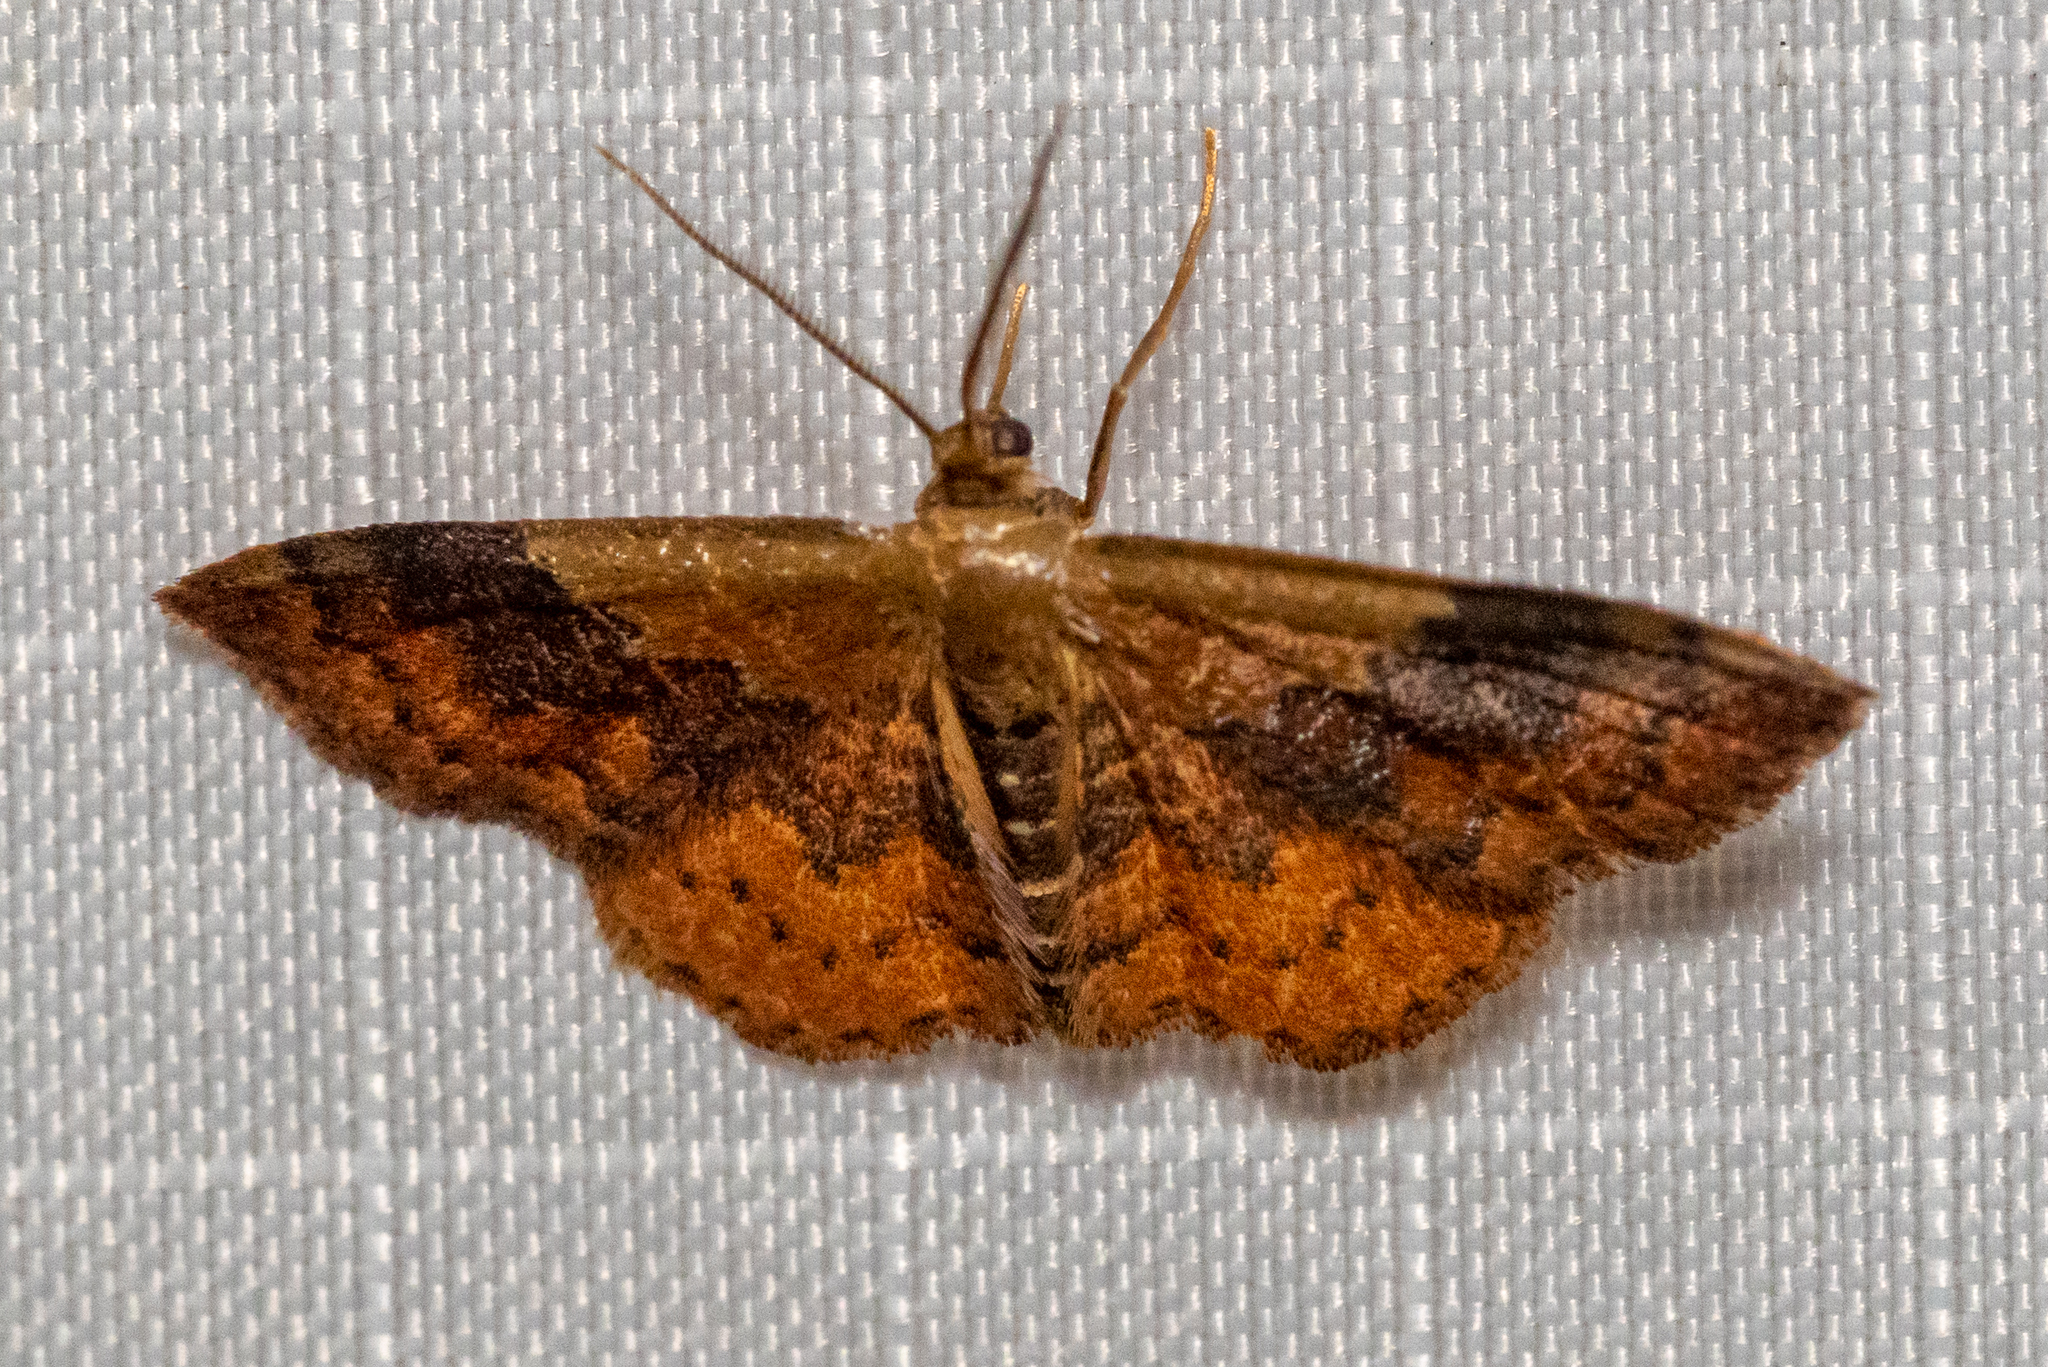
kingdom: Animalia
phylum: Arthropoda
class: Insecta
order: Lepidoptera
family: Geometridae
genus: Leptostales
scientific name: Leptostales ferruminaria
